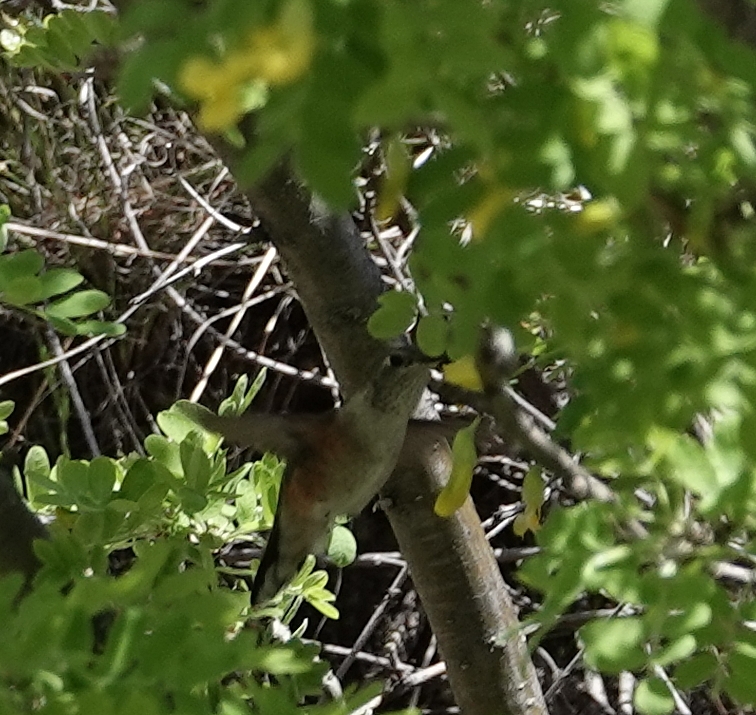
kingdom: Animalia
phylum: Chordata
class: Aves
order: Apodiformes
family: Trochilidae
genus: Selasphorus
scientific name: Selasphorus platycercus
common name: Broad-tailed hummingbird
